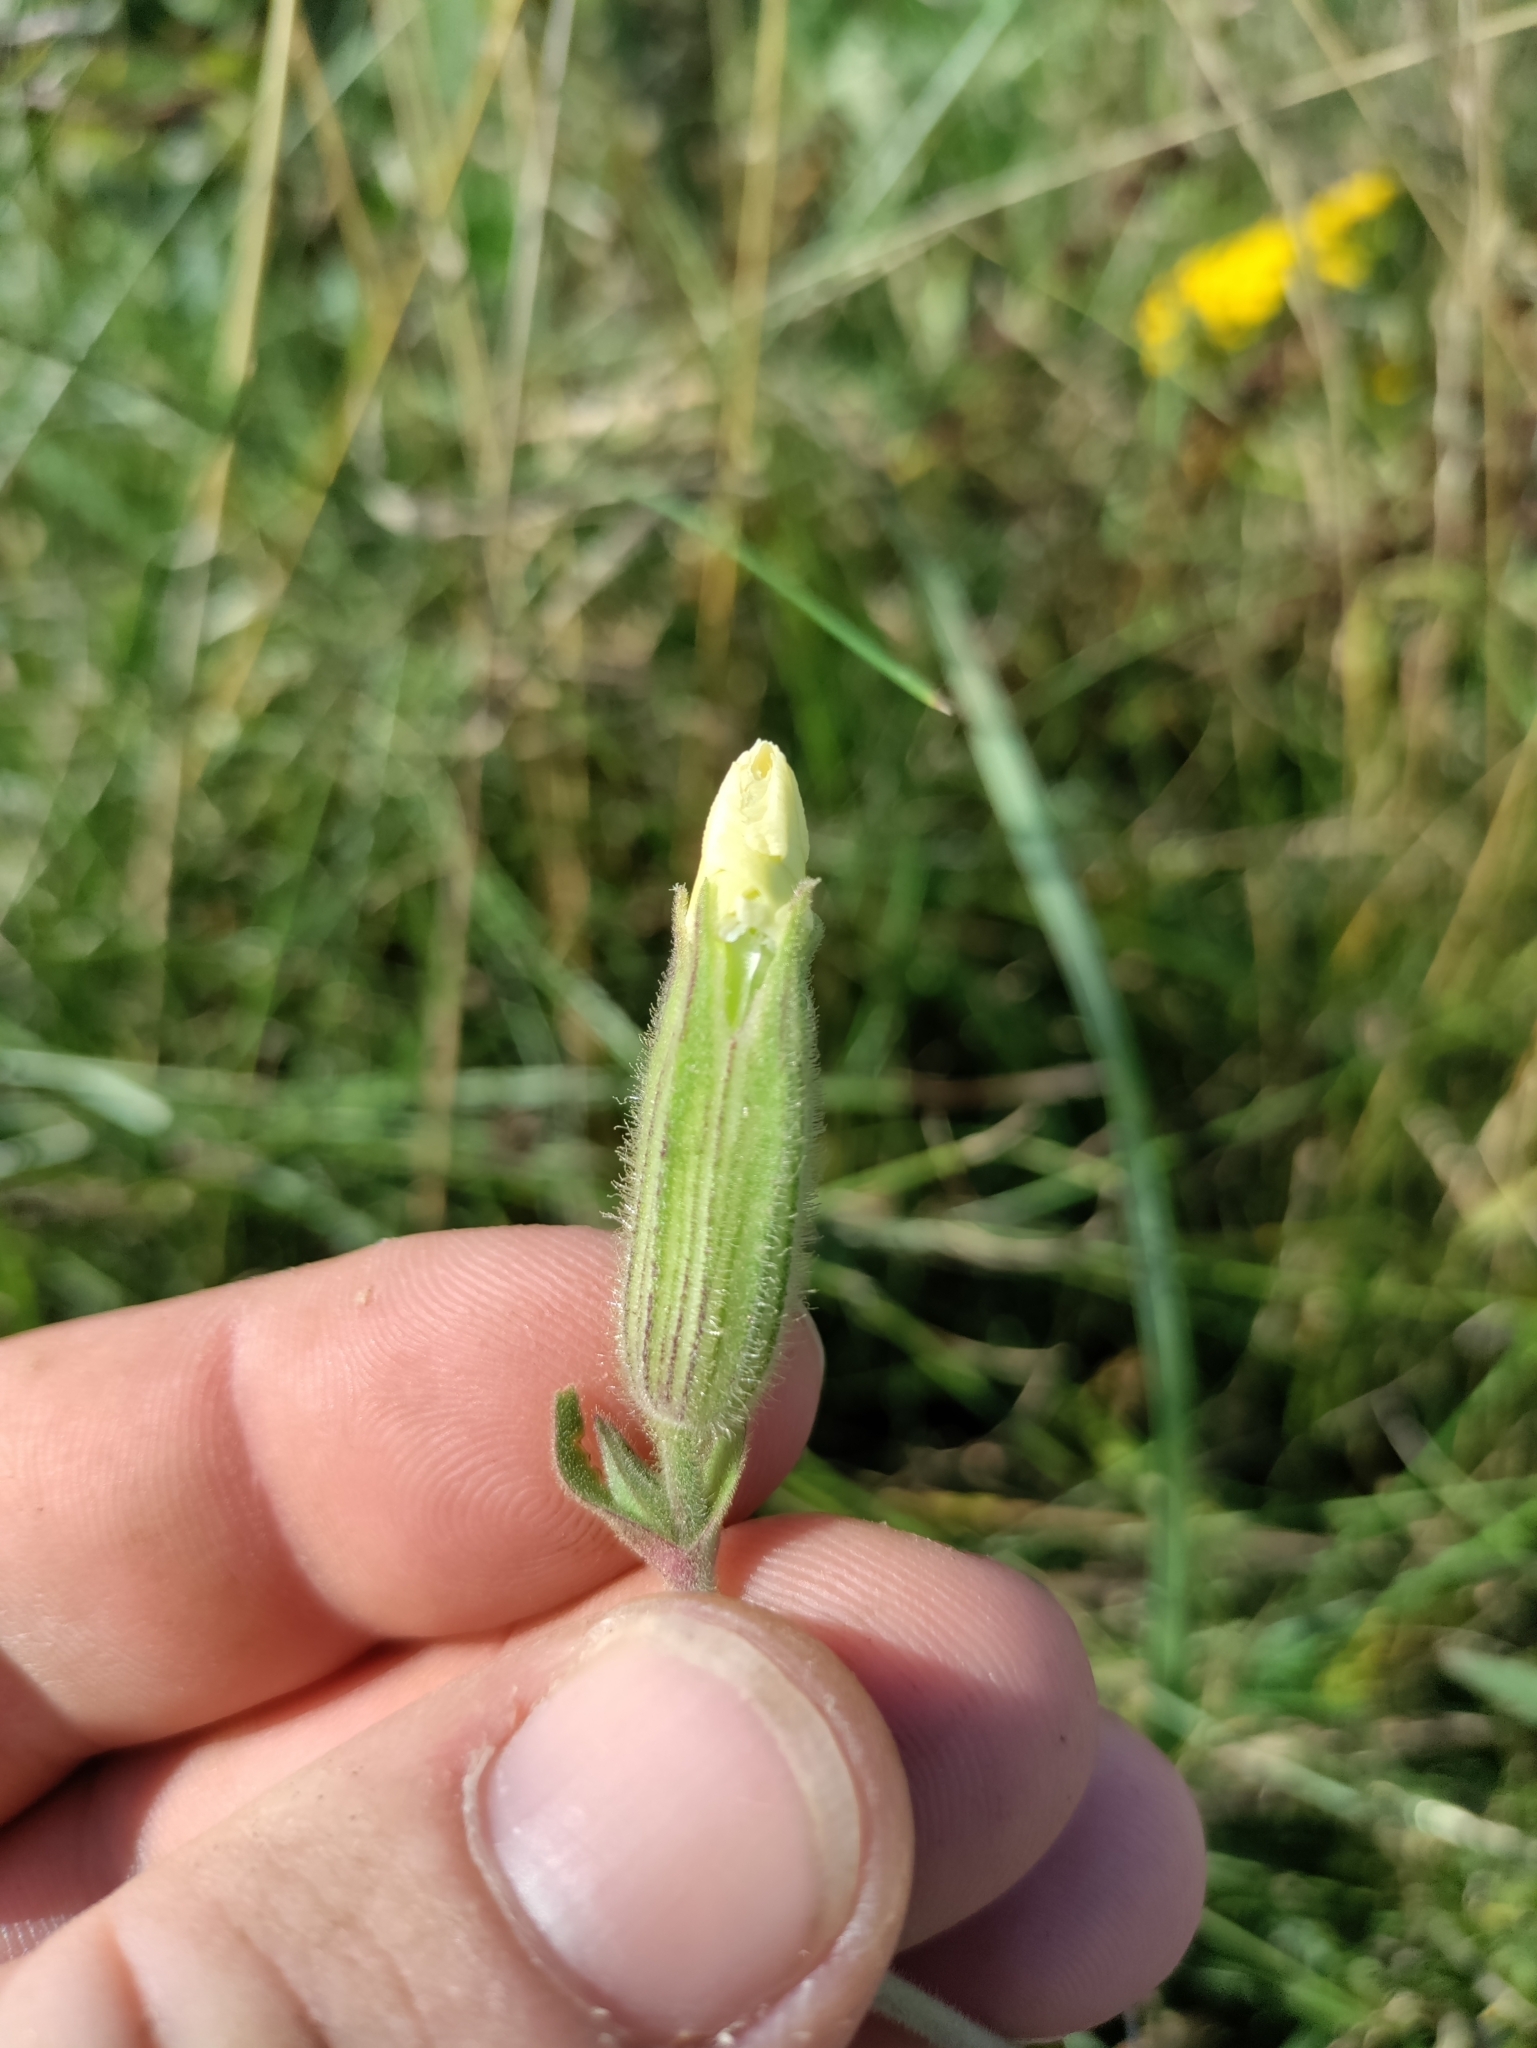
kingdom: Plantae
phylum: Tracheophyta
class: Magnoliopsida
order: Caryophyllales
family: Caryophyllaceae
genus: Silene
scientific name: Silene noctiflora
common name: Night-flowering catchfly
